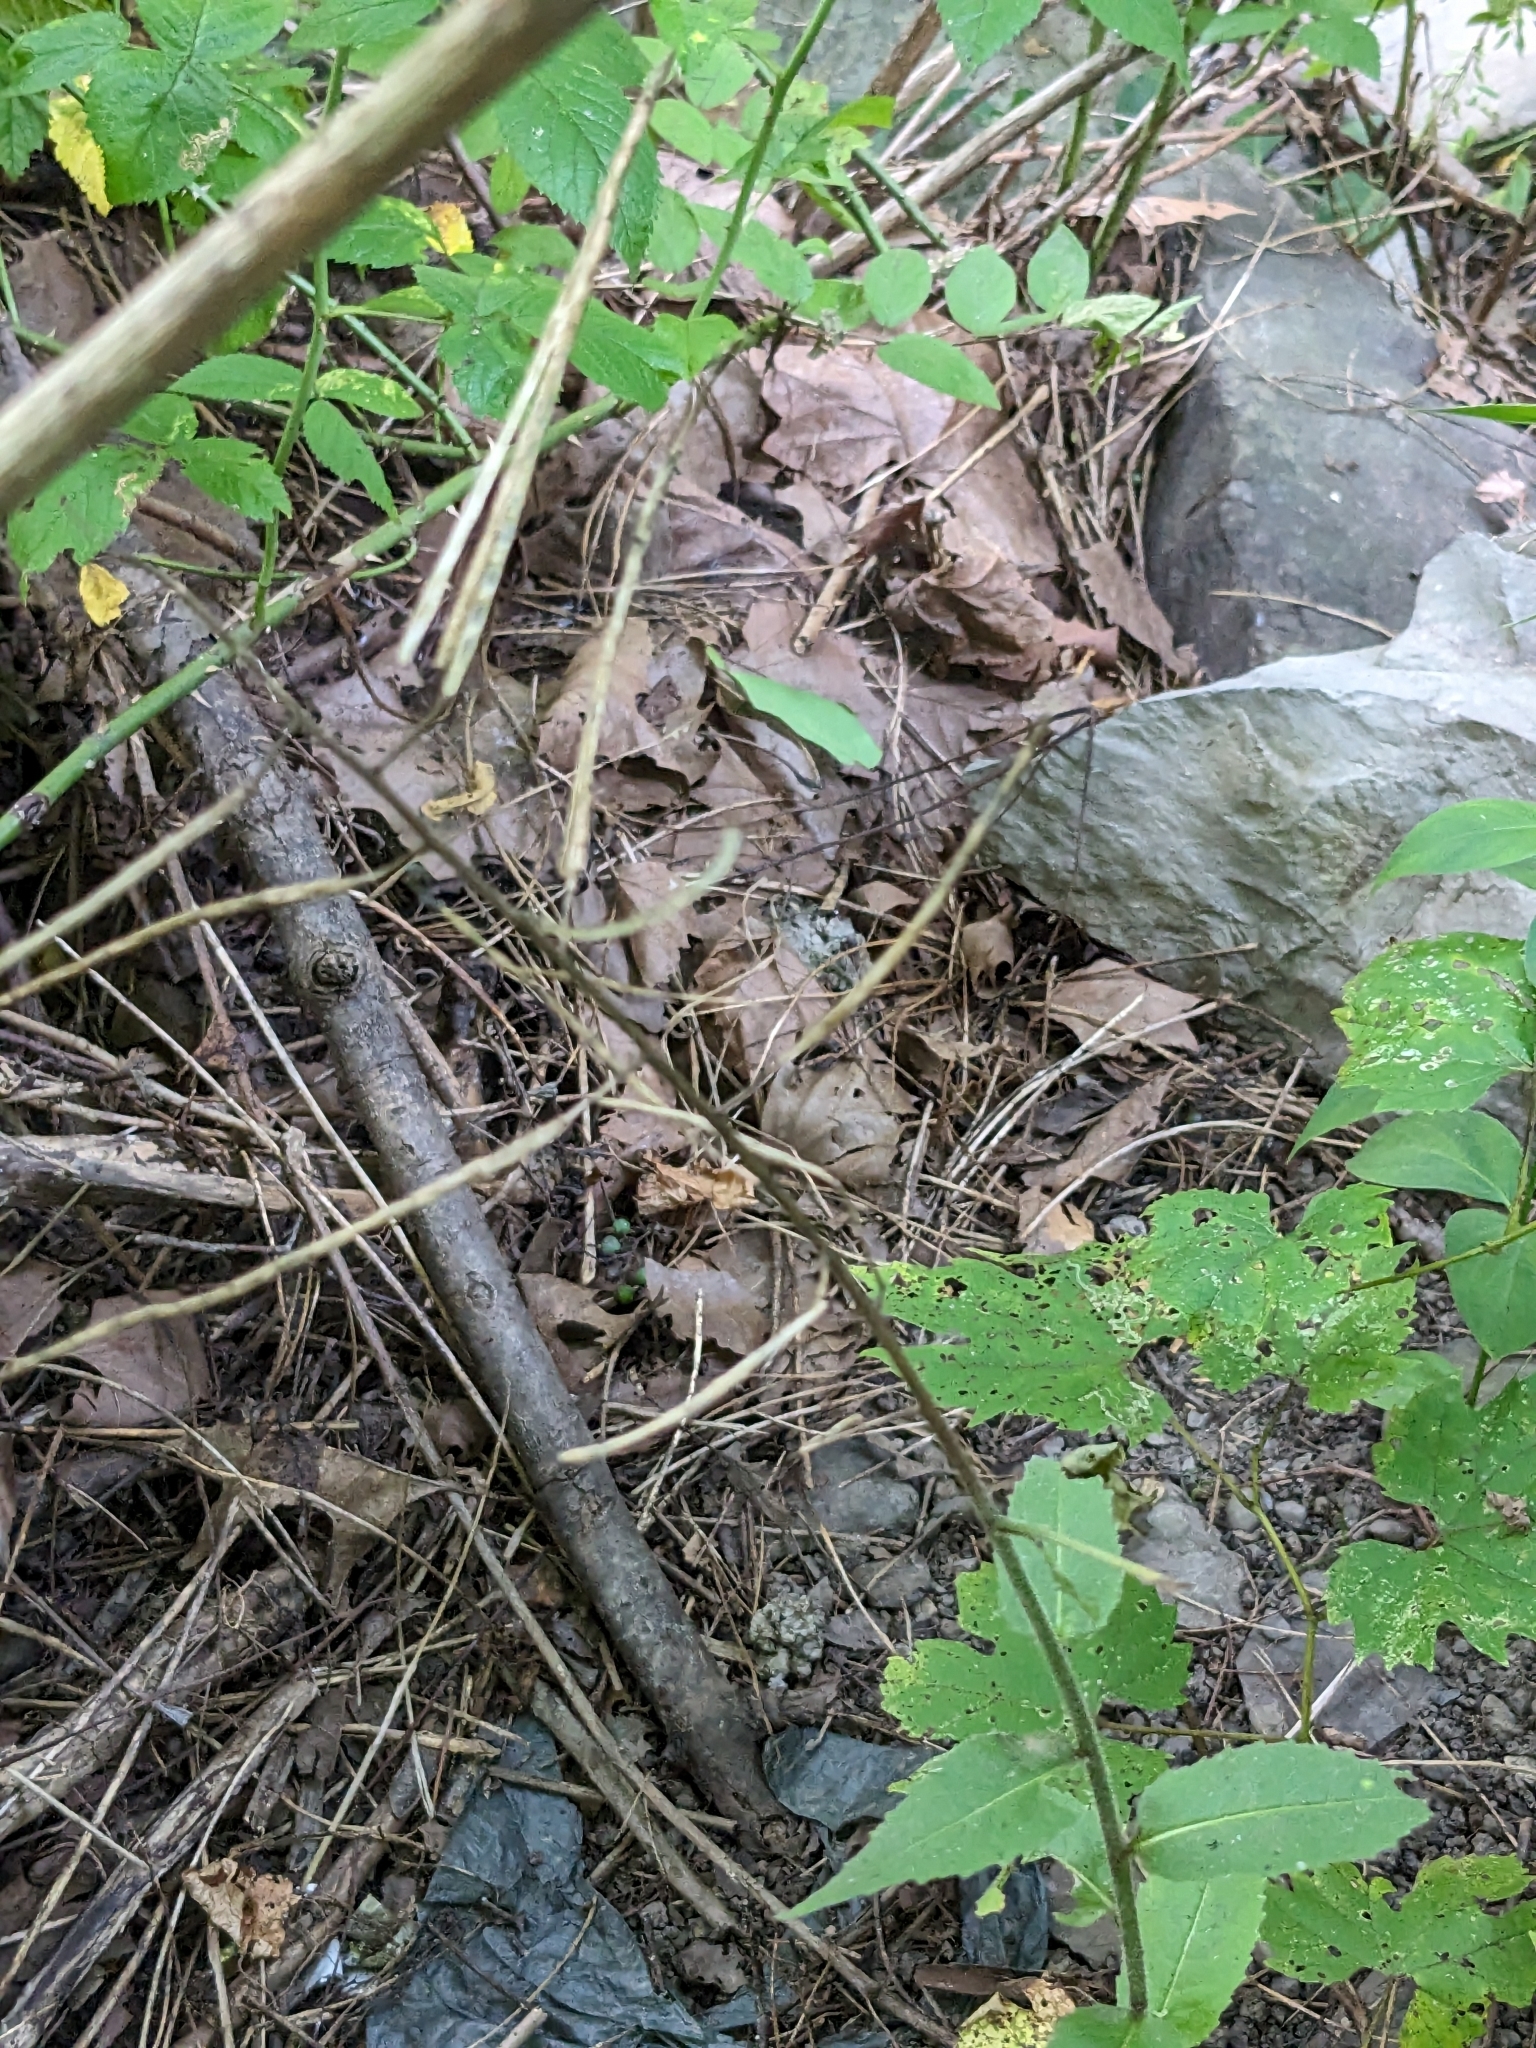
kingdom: Plantae
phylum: Tracheophyta
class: Magnoliopsida
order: Brassicales
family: Brassicaceae
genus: Hesperis
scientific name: Hesperis matronalis
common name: Dame's-violet
